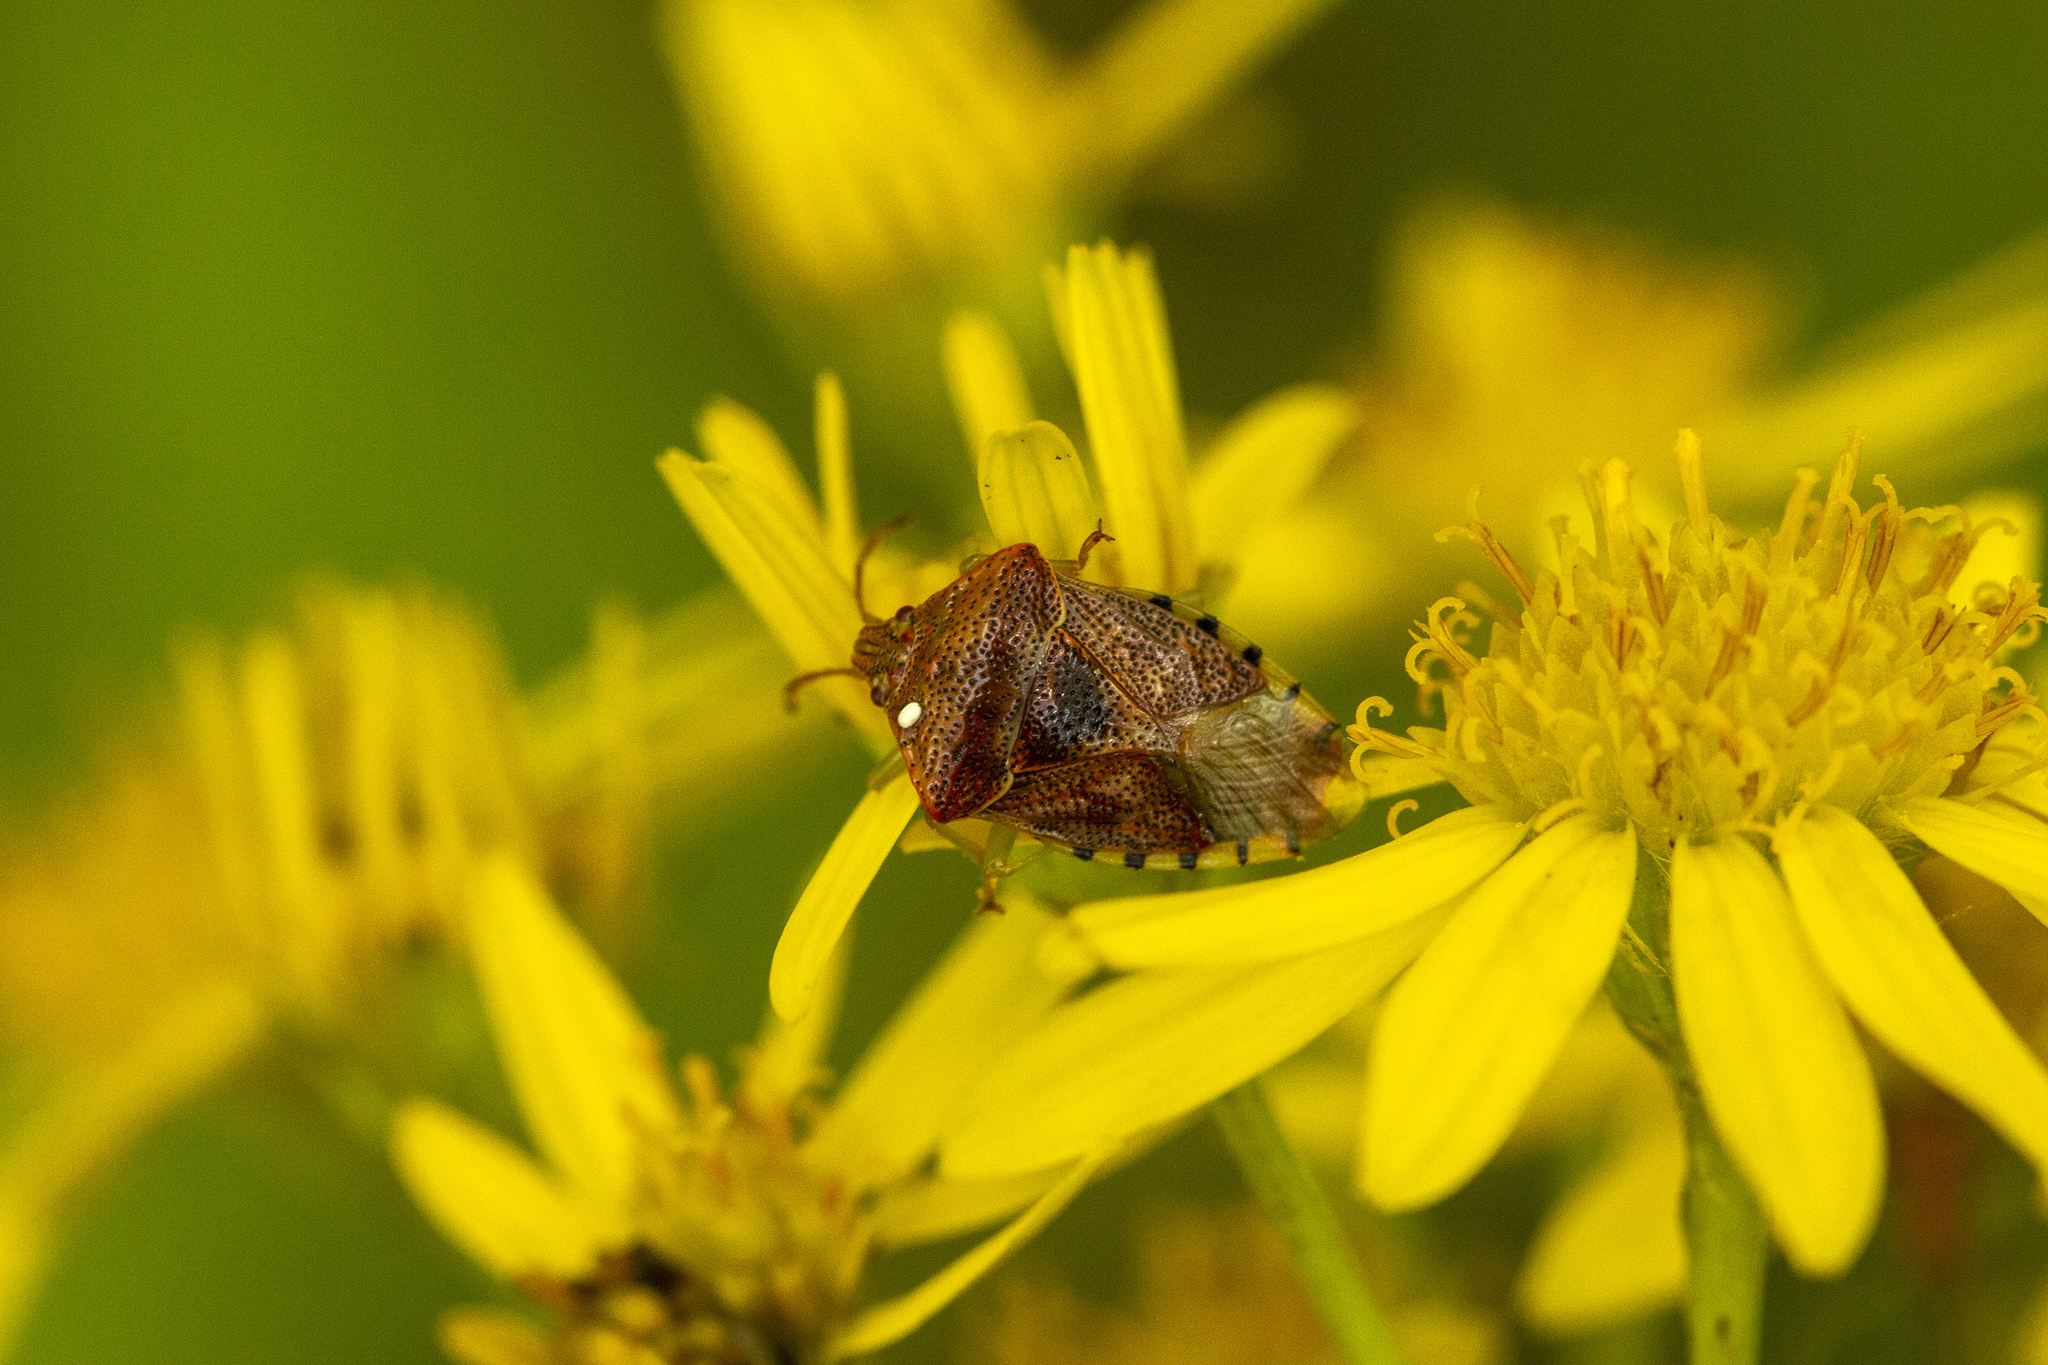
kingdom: Animalia
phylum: Arthropoda
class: Insecta
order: Hemiptera
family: Acanthosomatidae
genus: Elasmucha
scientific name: Elasmucha grisea
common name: Parent bug
